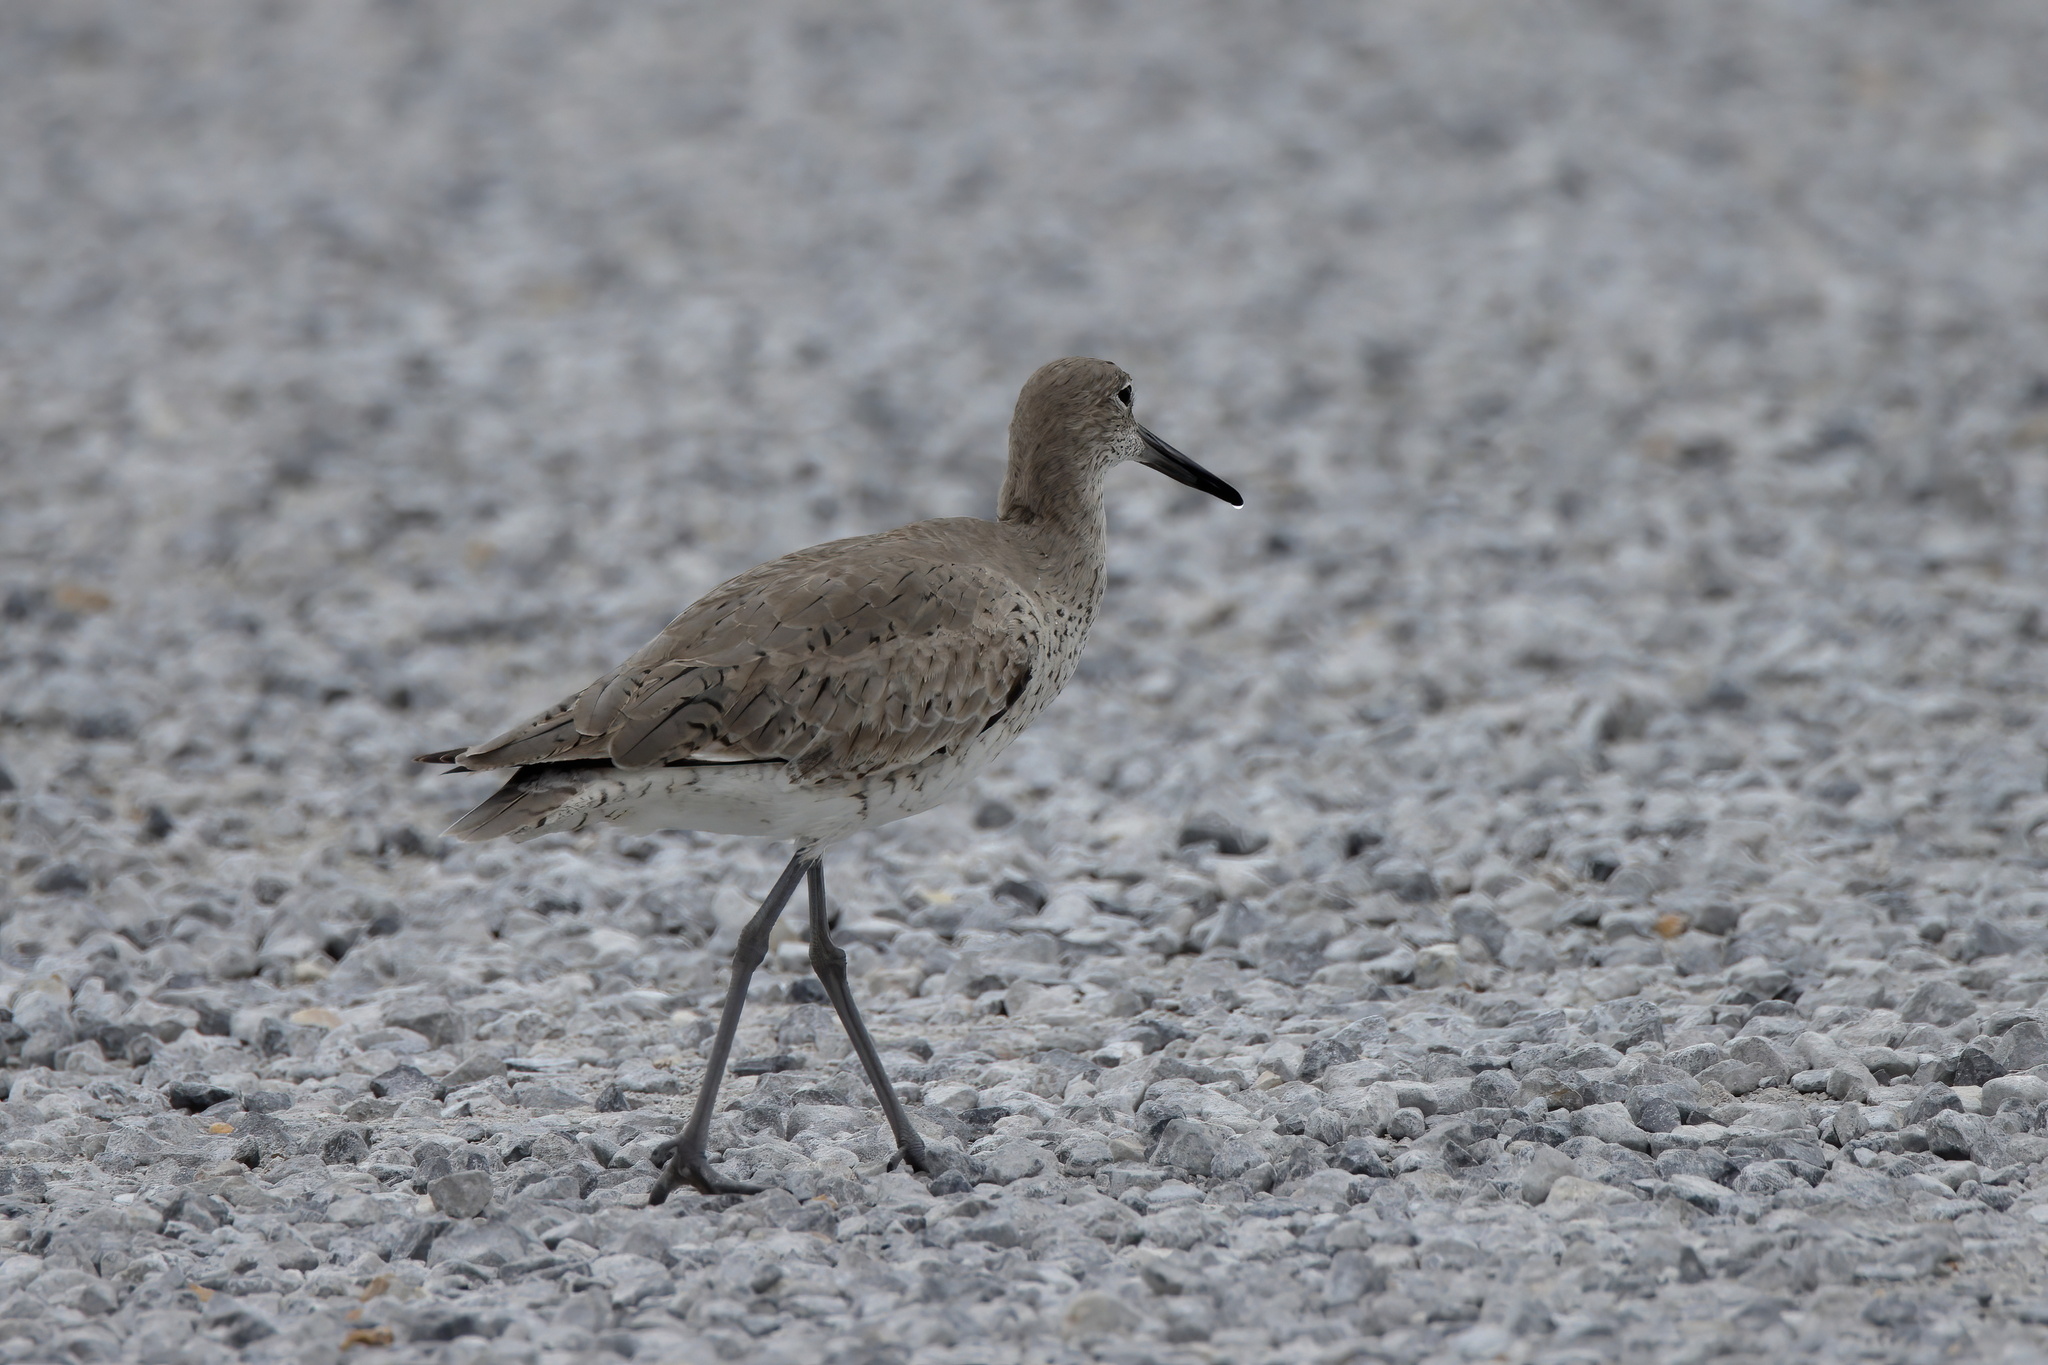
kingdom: Animalia
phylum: Chordata
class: Aves
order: Charadriiformes
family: Scolopacidae
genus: Tringa
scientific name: Tringa semipalmata
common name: Willet
